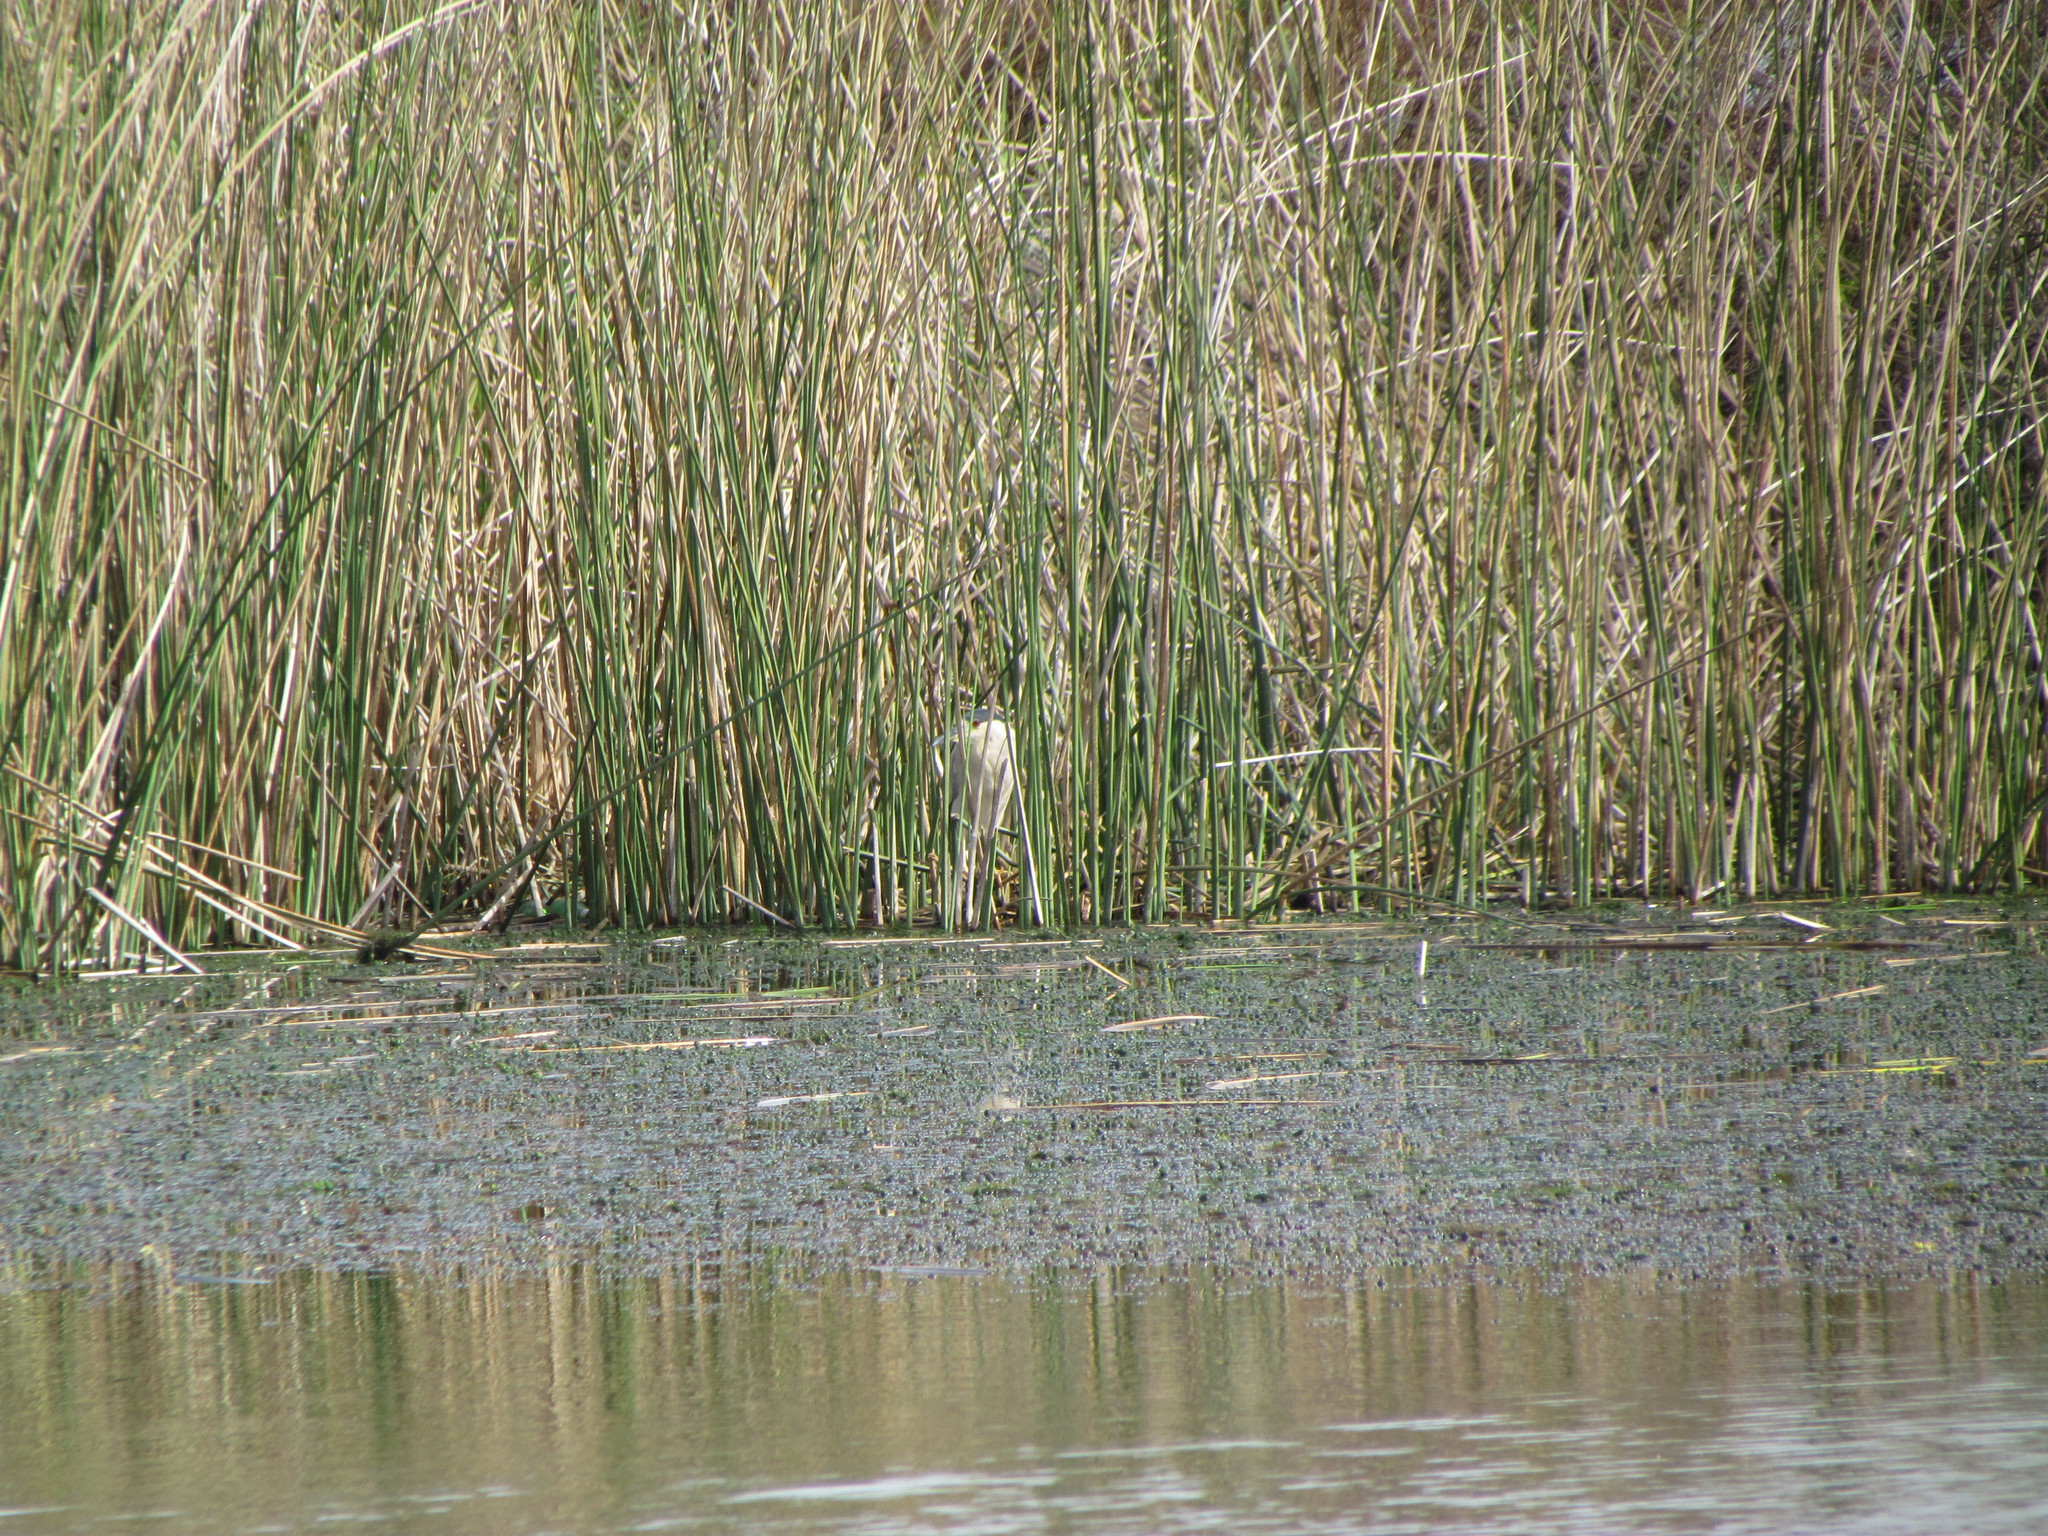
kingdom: Animalia
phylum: Chordata
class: Aves
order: Pelecaniformes
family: Ardeidae
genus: Nycticorax
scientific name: Nycticorax nycticorax
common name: Black-crowned night heron
